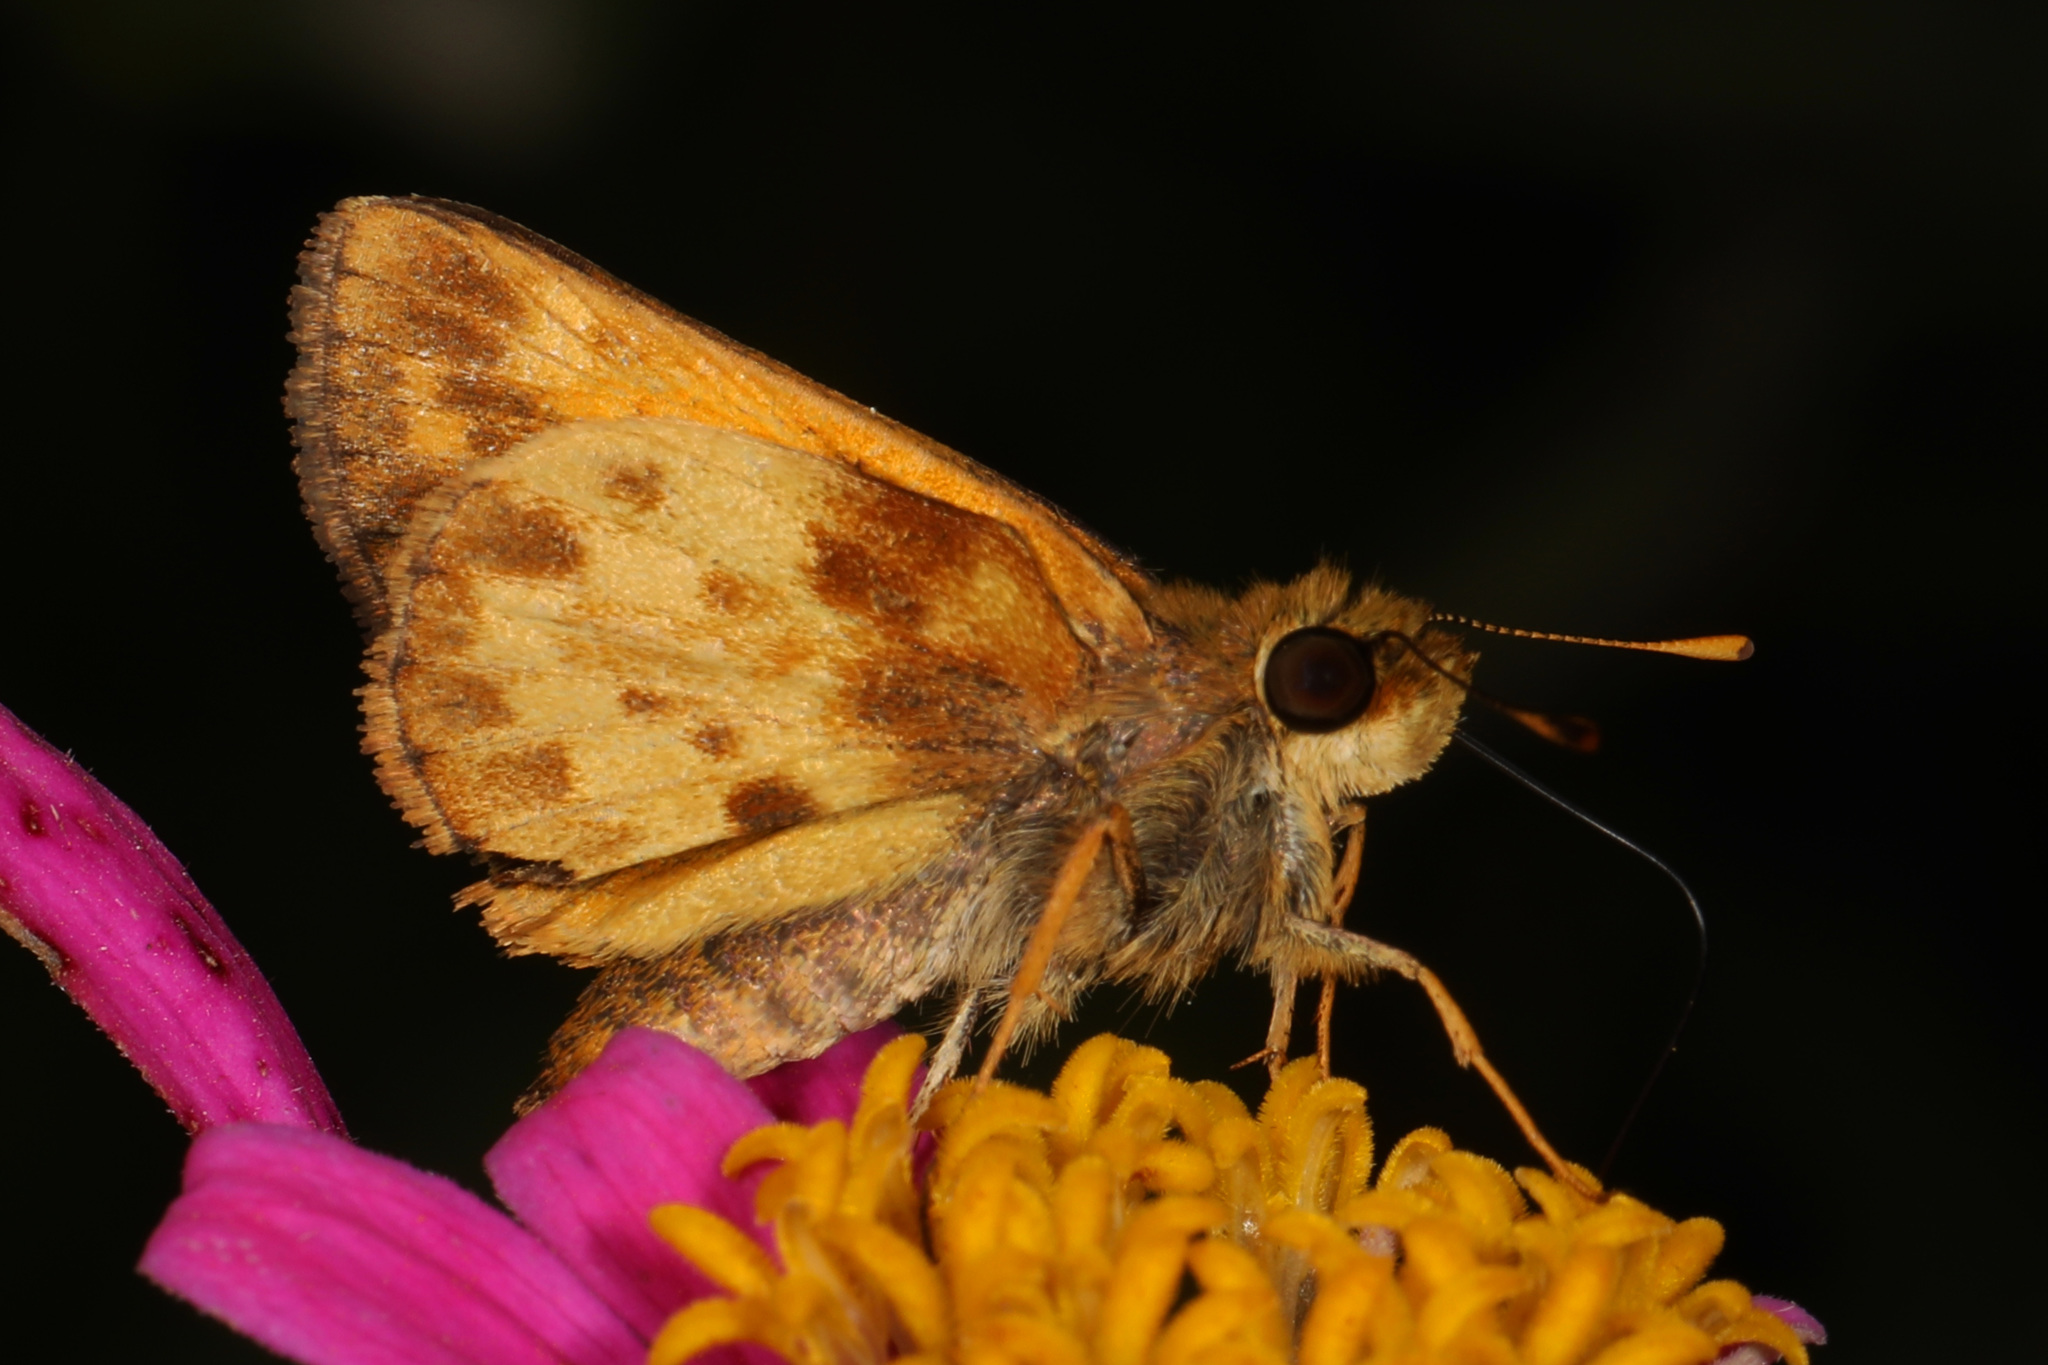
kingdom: Animalia
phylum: Arthropoda
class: Insecta
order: Lepidoptera
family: Hesperiidae
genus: Lon
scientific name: Lon zabulon
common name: Zabulon skipper
